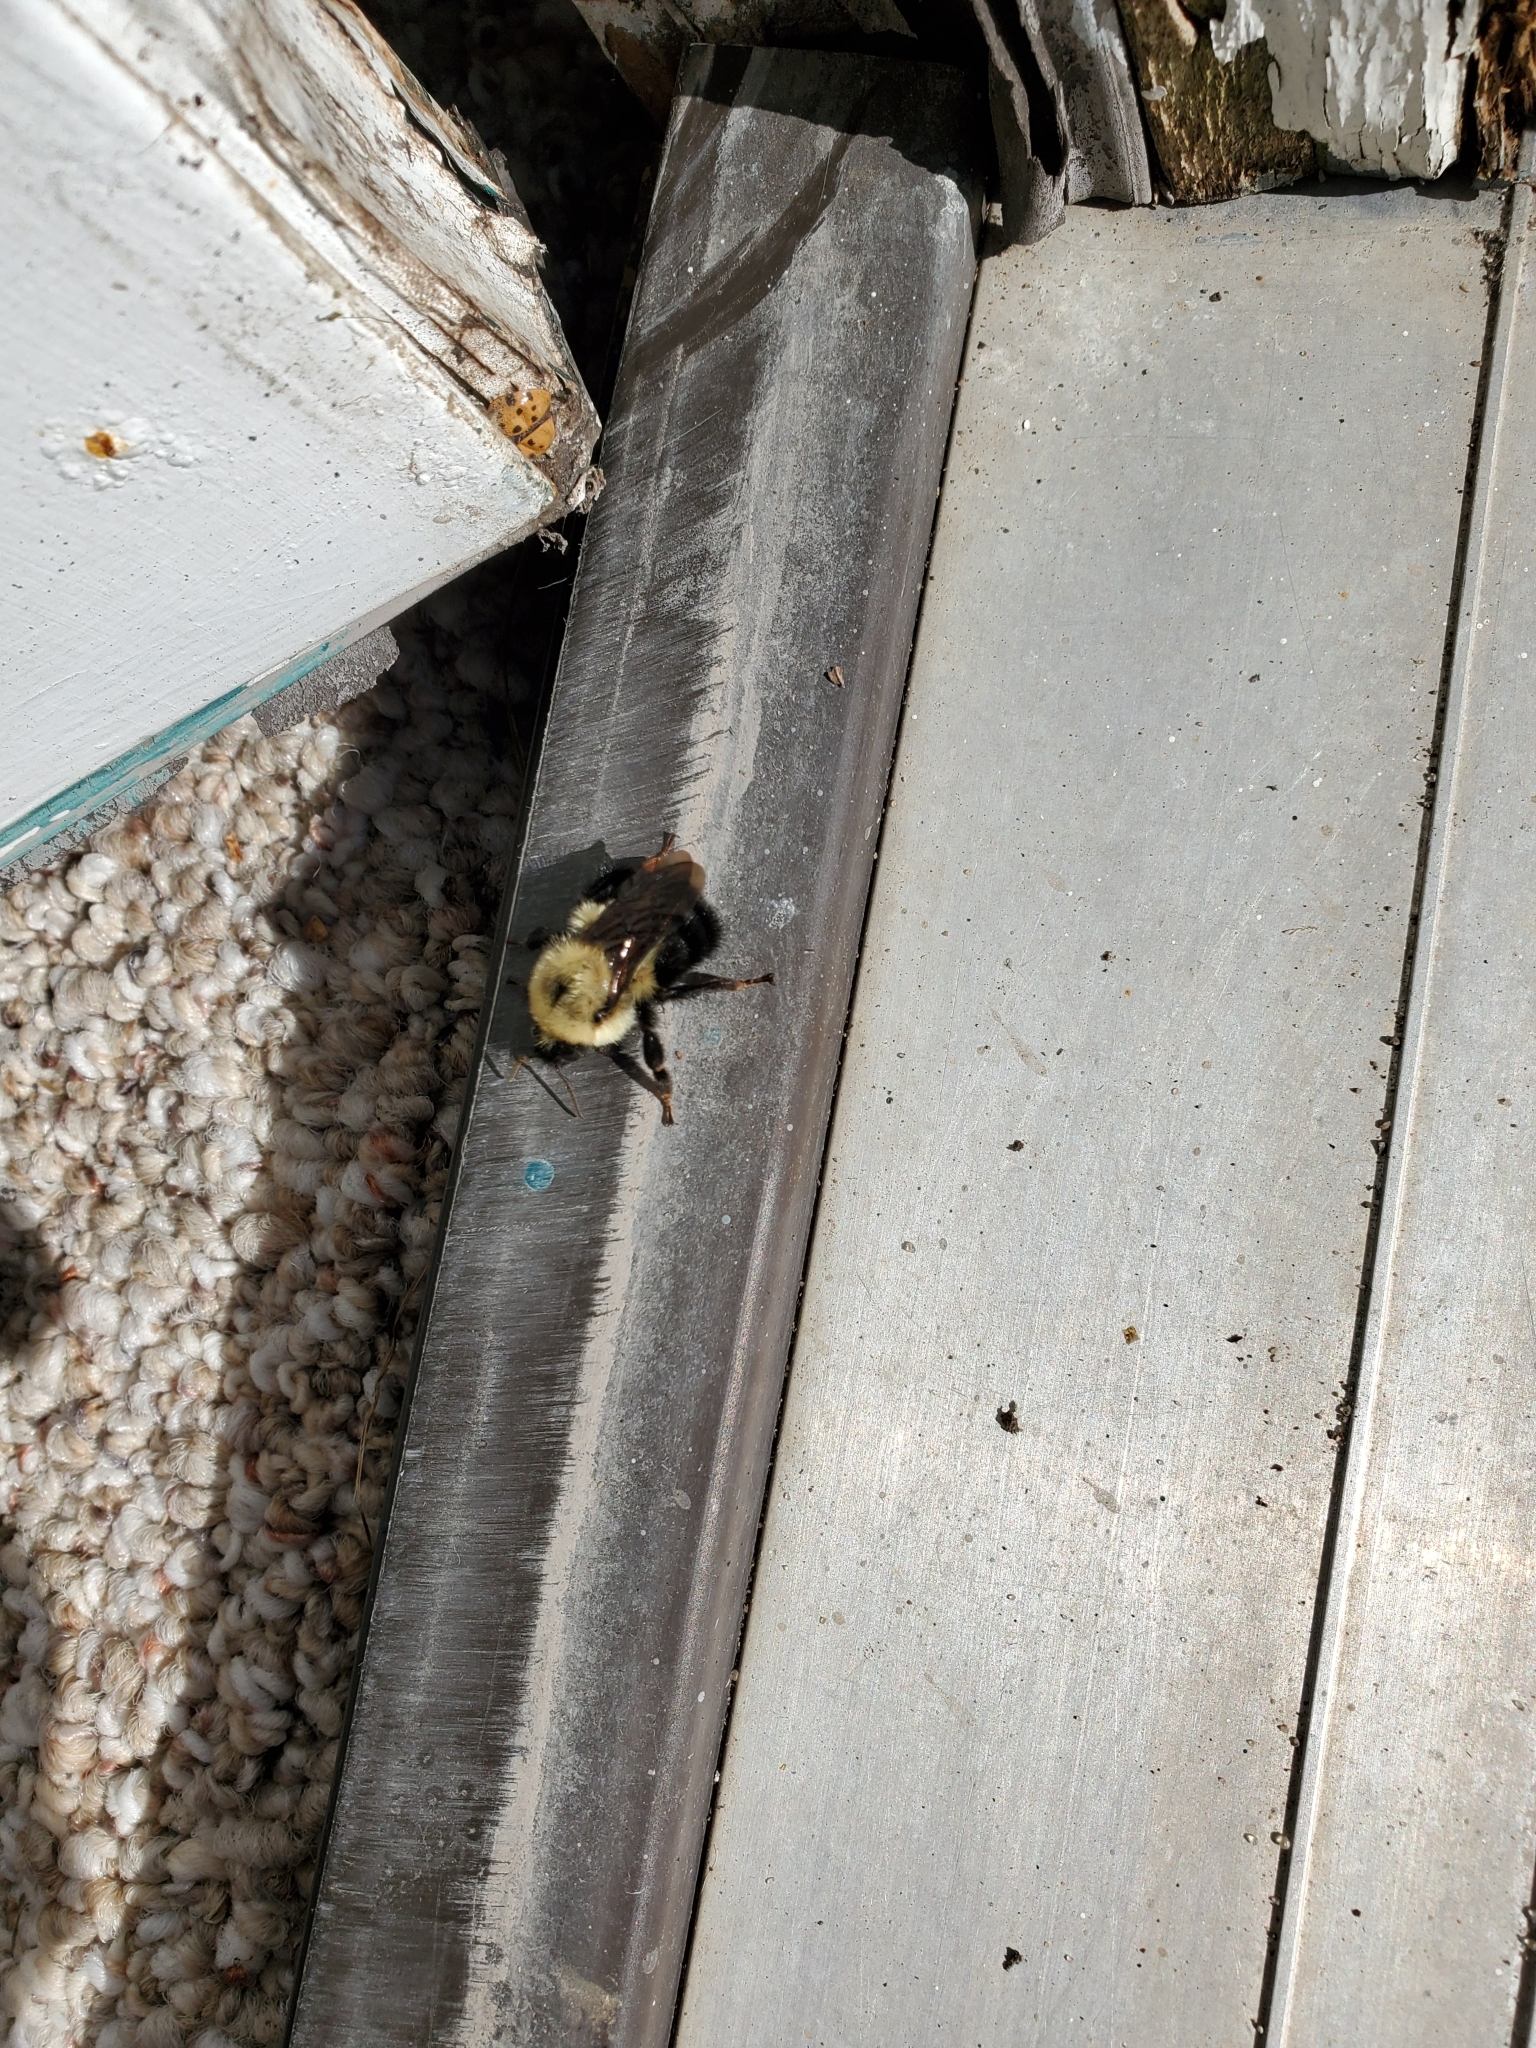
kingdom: Animalia
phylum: Arthropoda
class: Insecta
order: Hymenoptera
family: Apidae
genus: Bombus
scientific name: Bombus bimaculatus
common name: Two-spotted bumble bee
